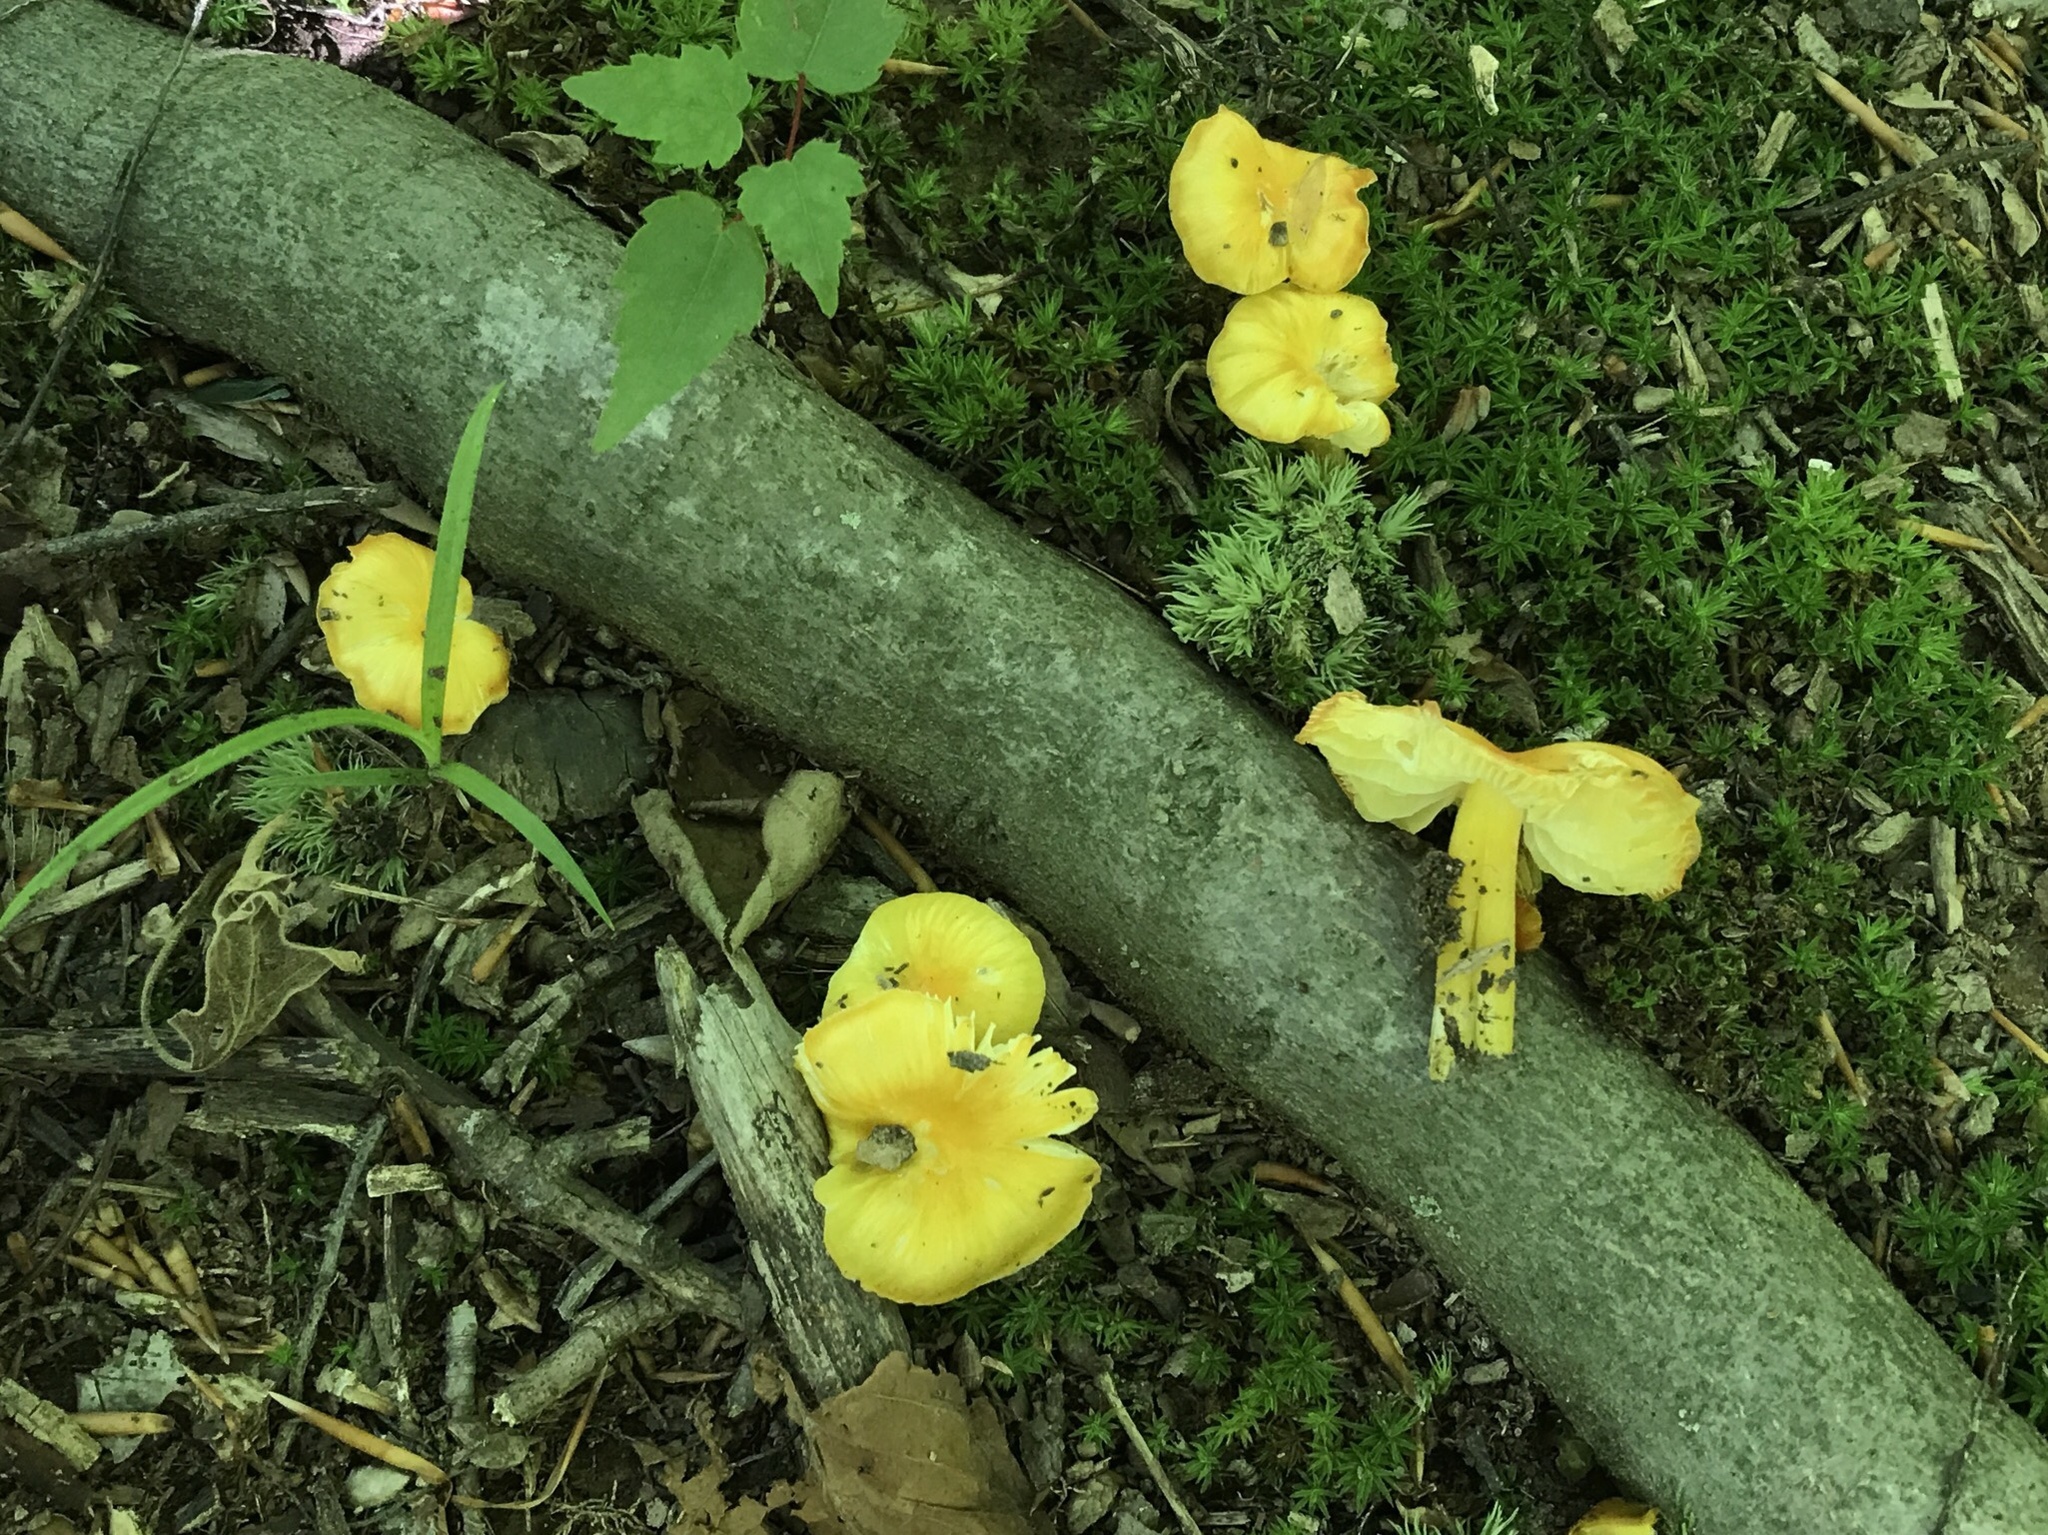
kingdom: Fungi
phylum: Basidiomycota
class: Agaricomycetes
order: Agaricales
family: Hygrophoraceae
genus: Hygrocybe
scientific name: Hygrocybe flavescens
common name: Golden waxy cap
